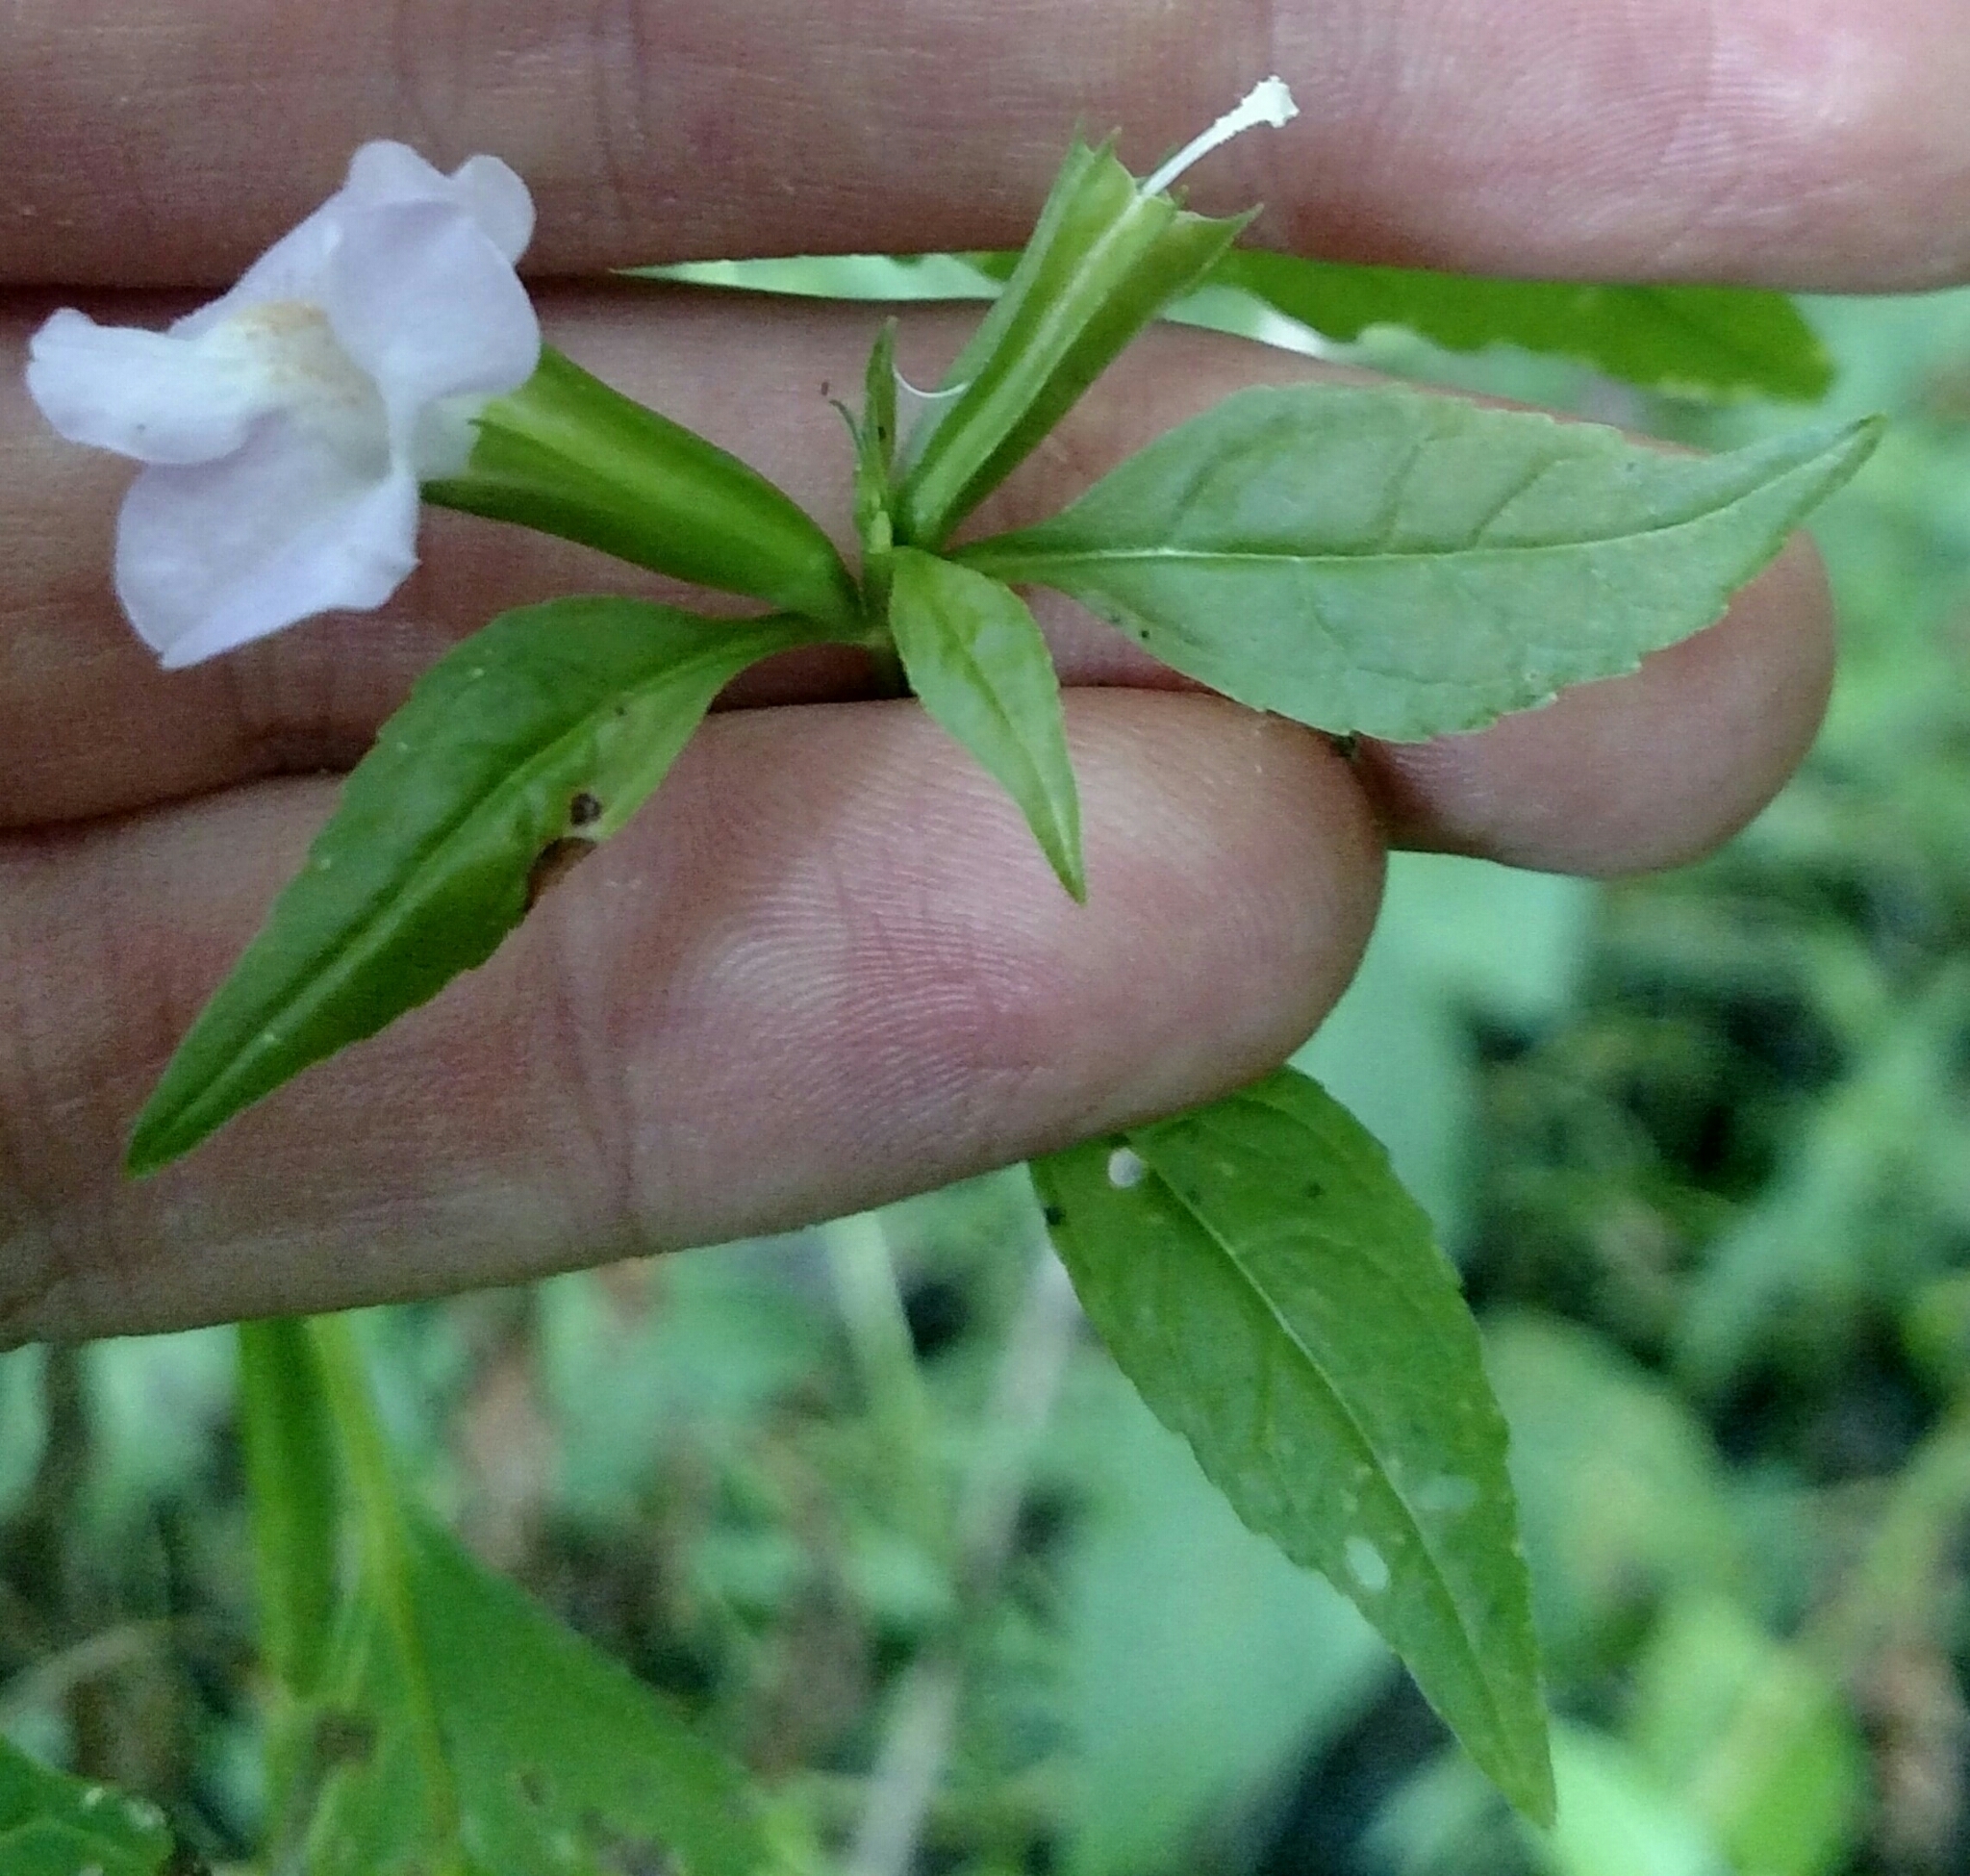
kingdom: Plantae
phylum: Tracheophyta
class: Magnoliopsida
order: Lamiales
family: Phrymaceae
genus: Mimulus
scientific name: Mimulus alatus
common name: Sharp-wing monkey-flower
